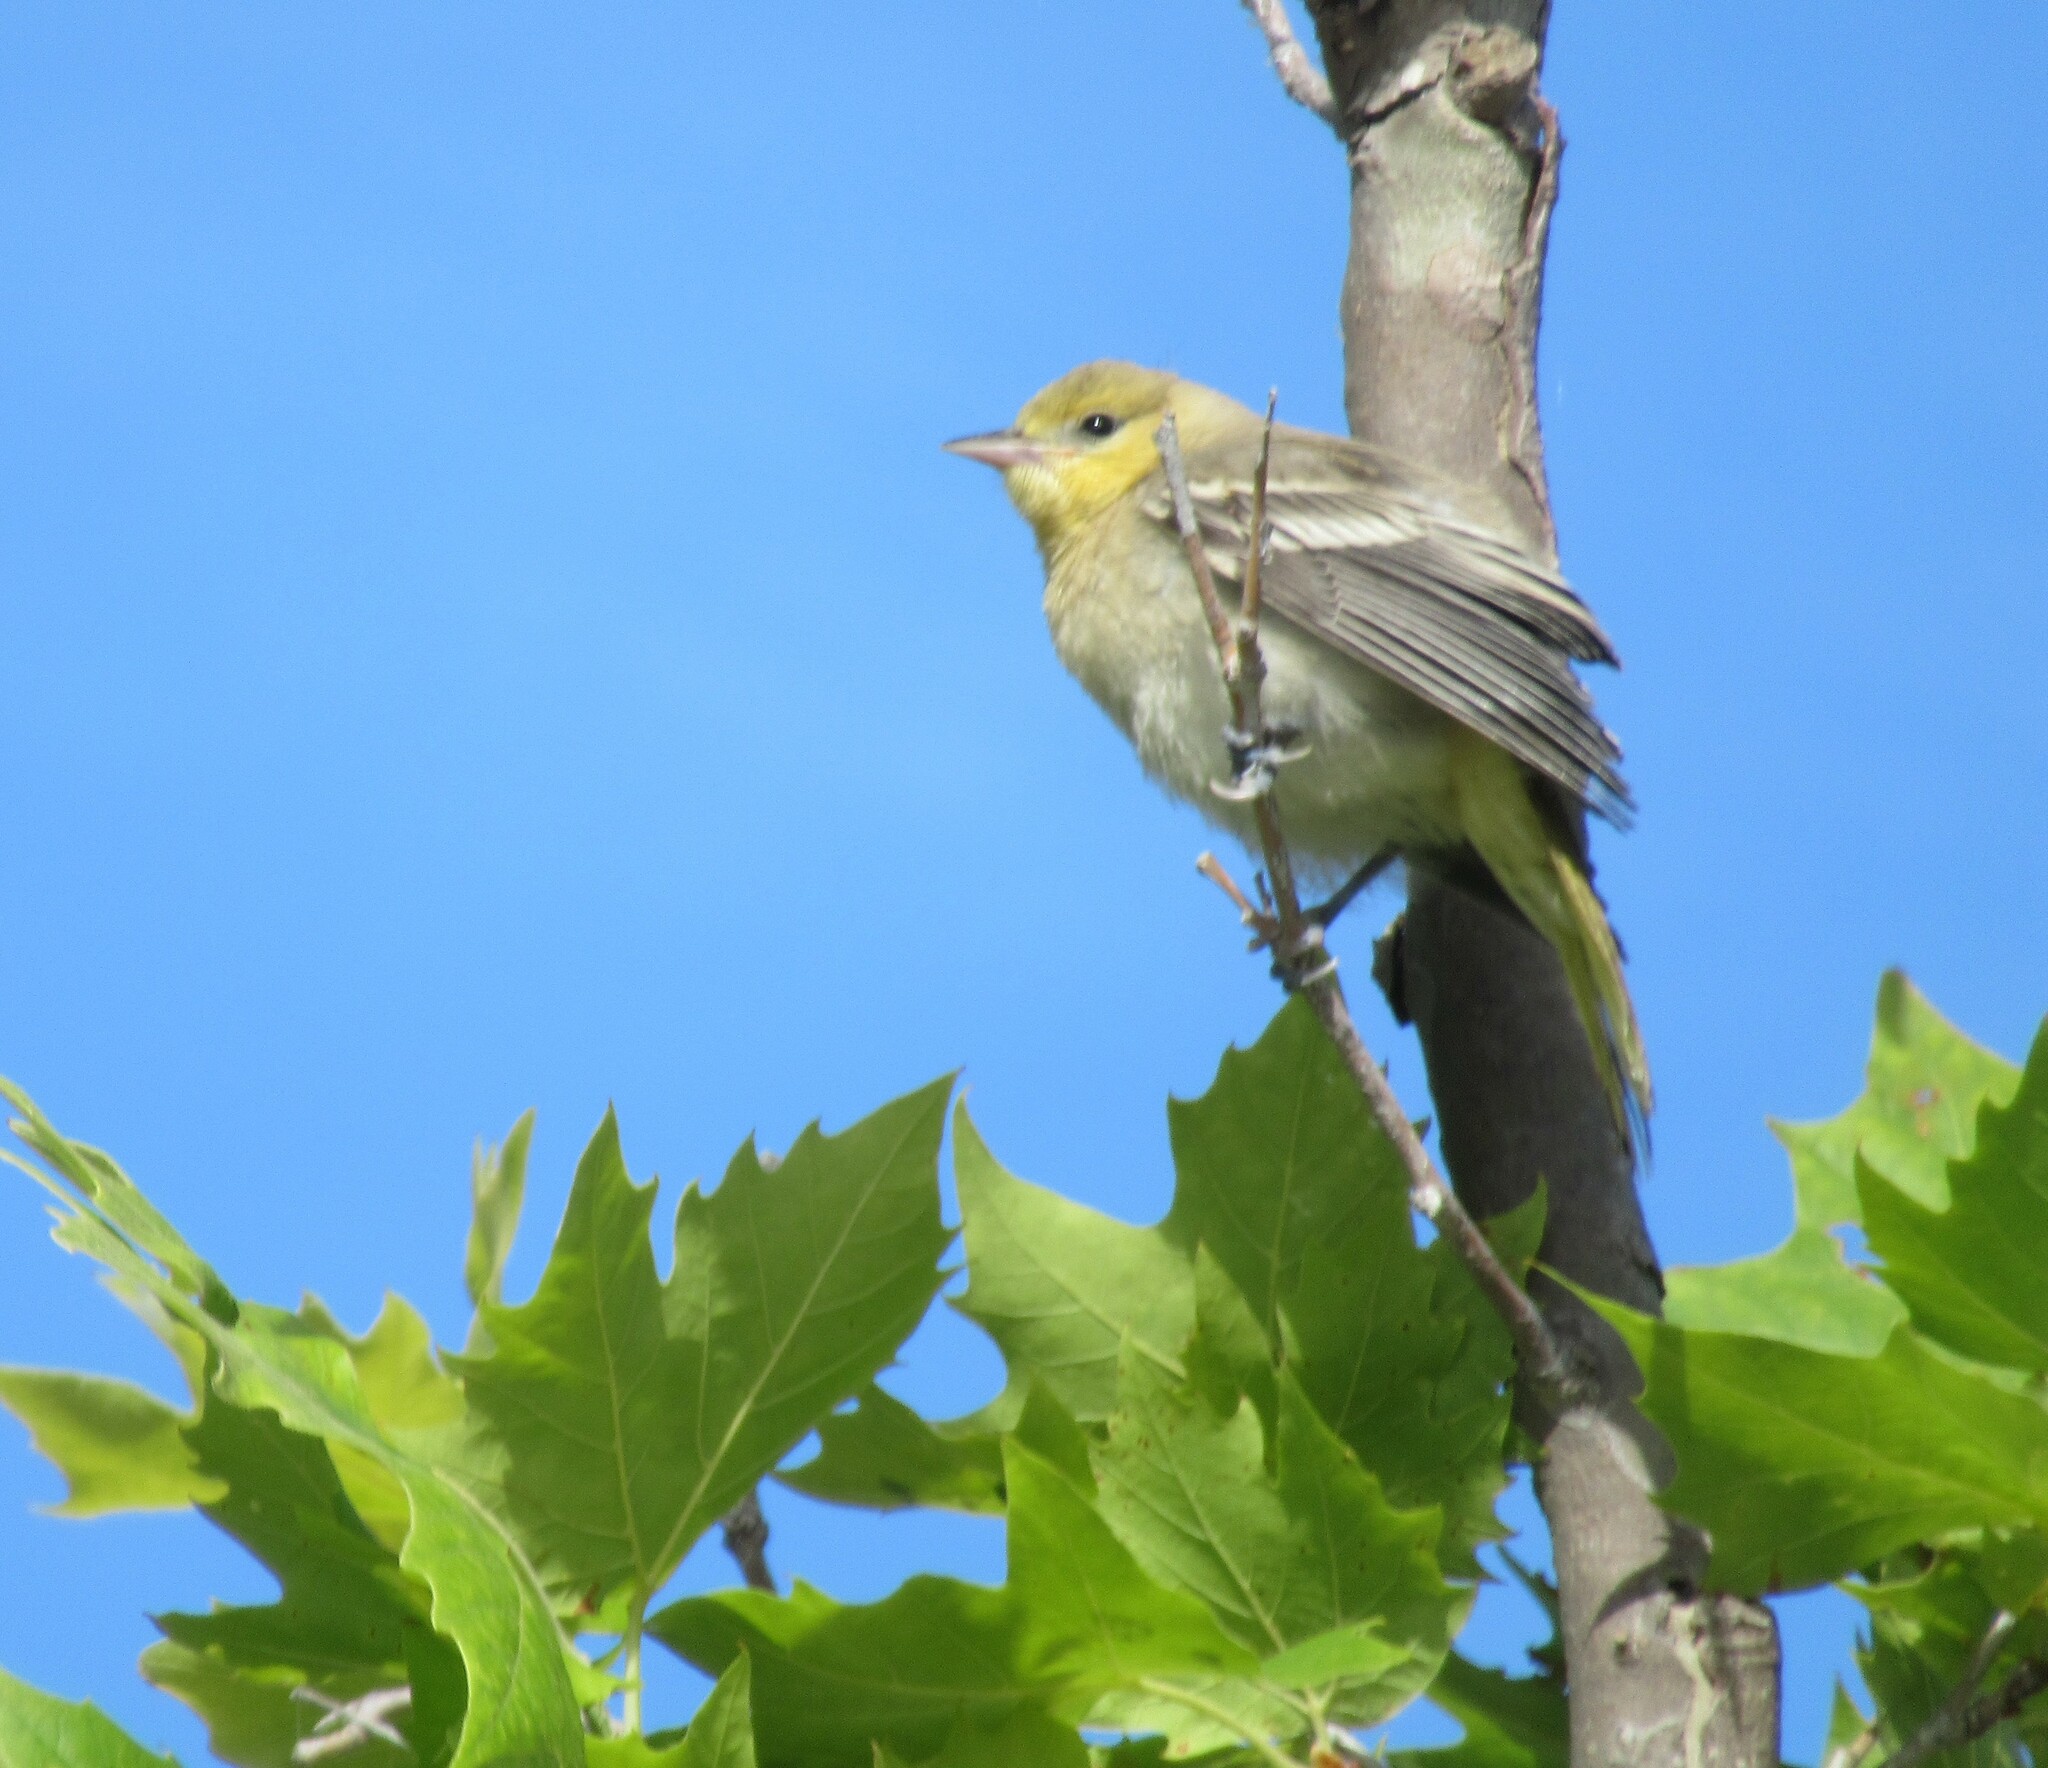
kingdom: Animalia
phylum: Chordata
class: Aves
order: Passeriformes
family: Icteridae
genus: Icterus
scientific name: Icterus bullockii
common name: Bullock's oriole
